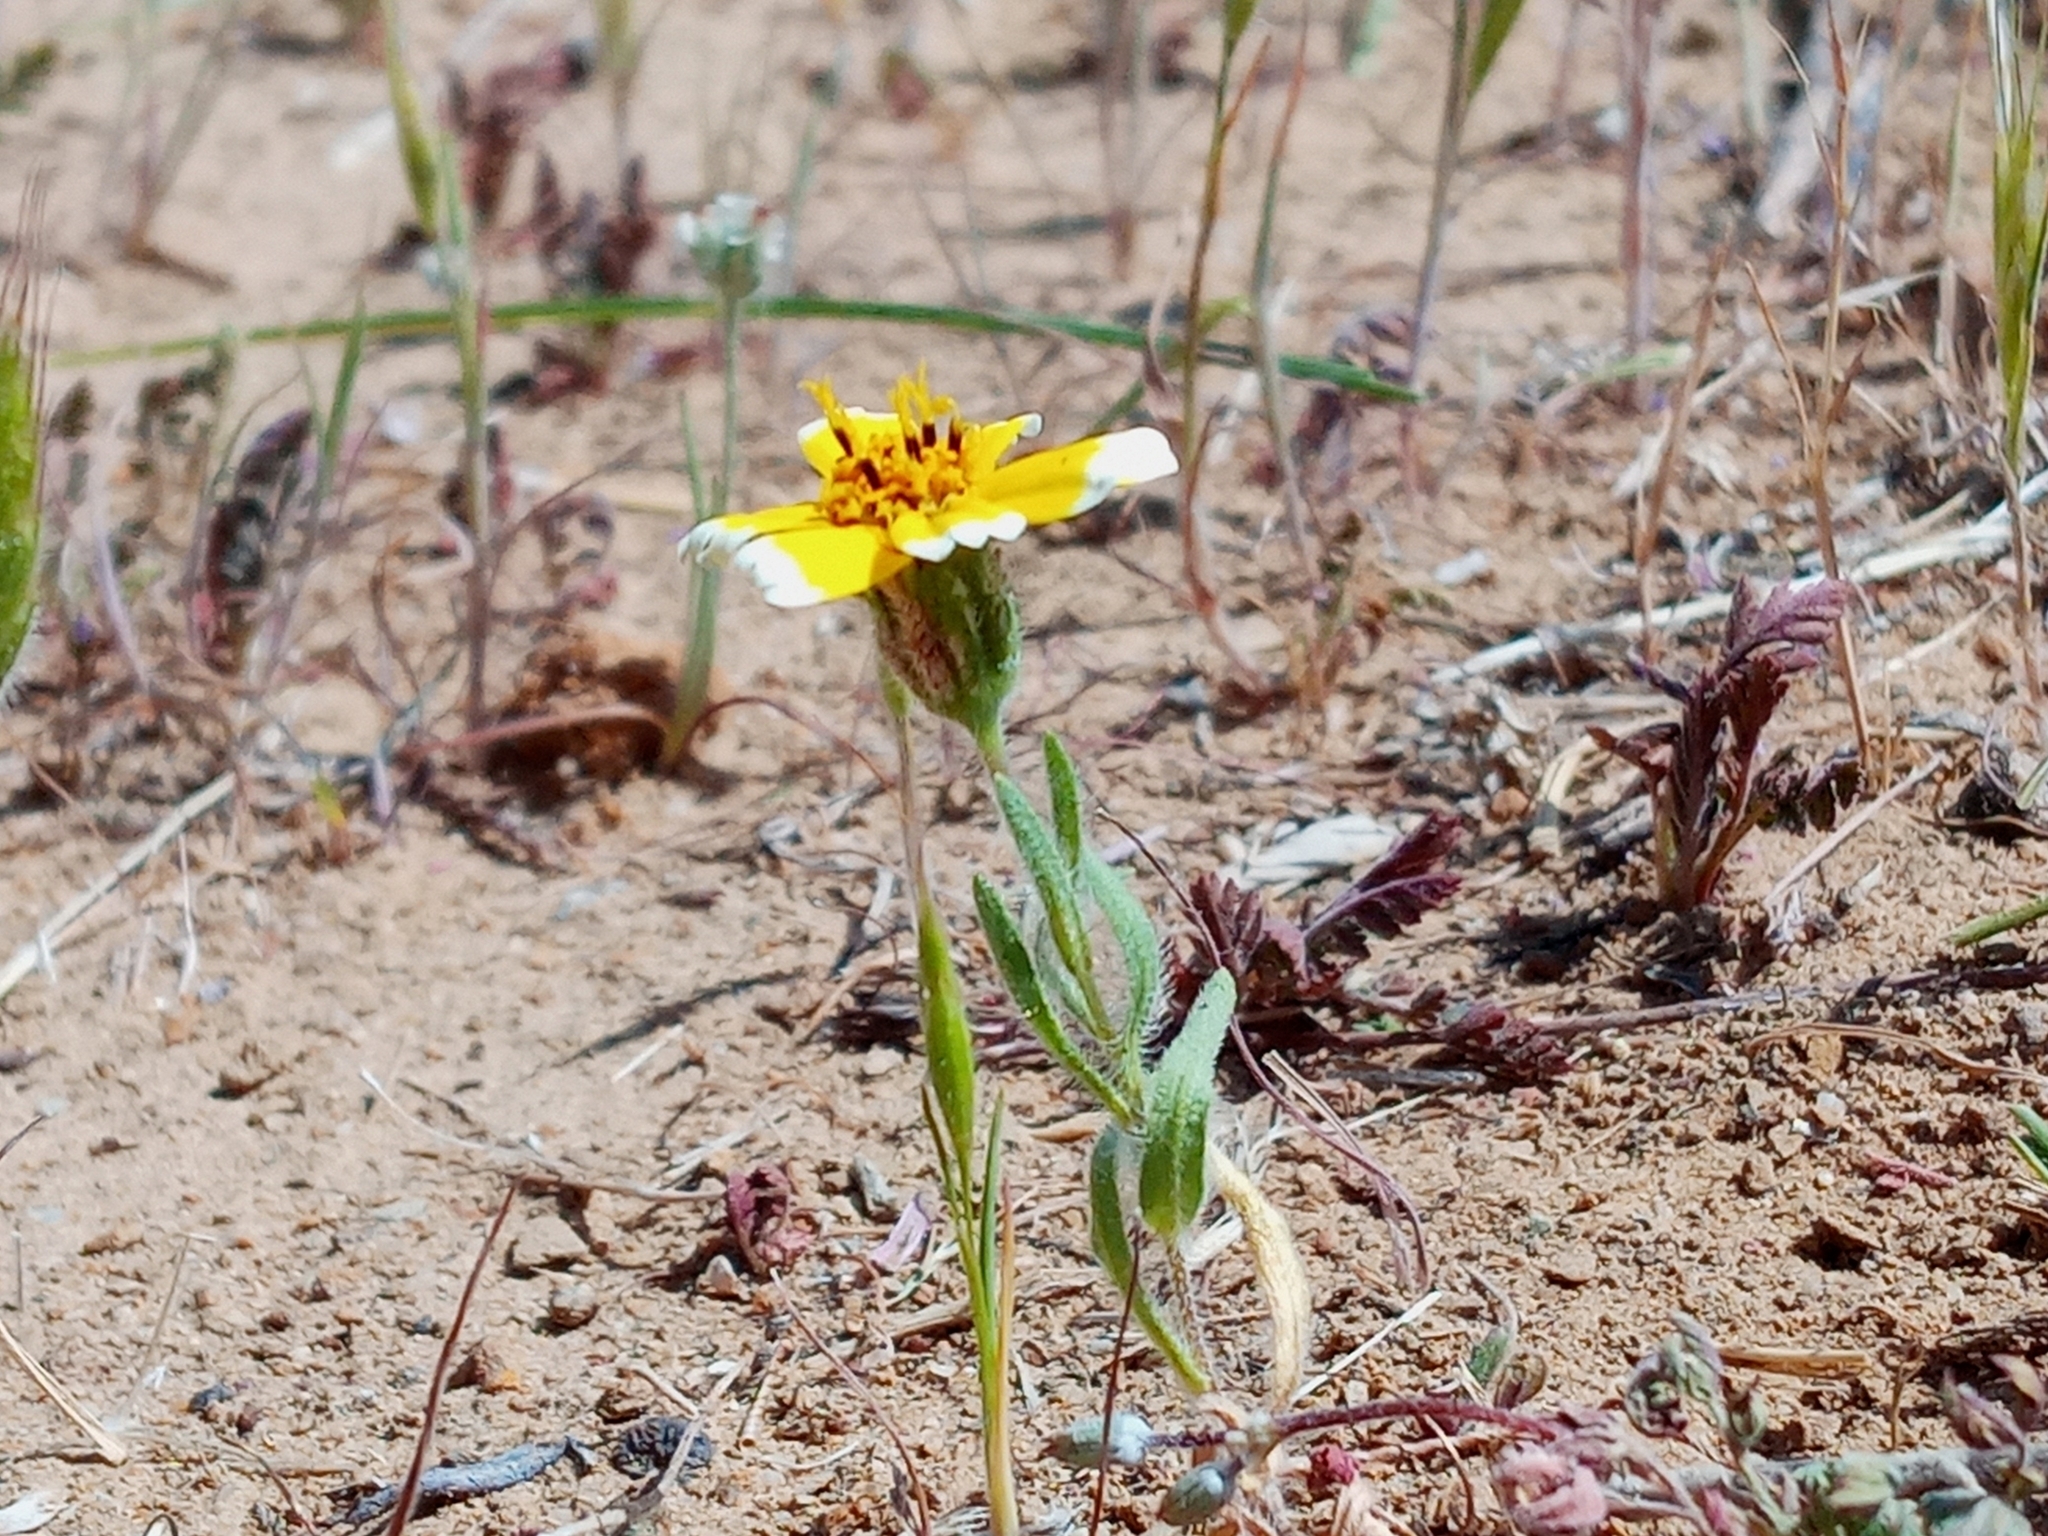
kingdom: Plantae
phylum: Tracheophyta
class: Magnoliopsida
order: Asterales
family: Asteraceae
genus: Layia
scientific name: Layia platyglossa
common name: Tidy-tips
